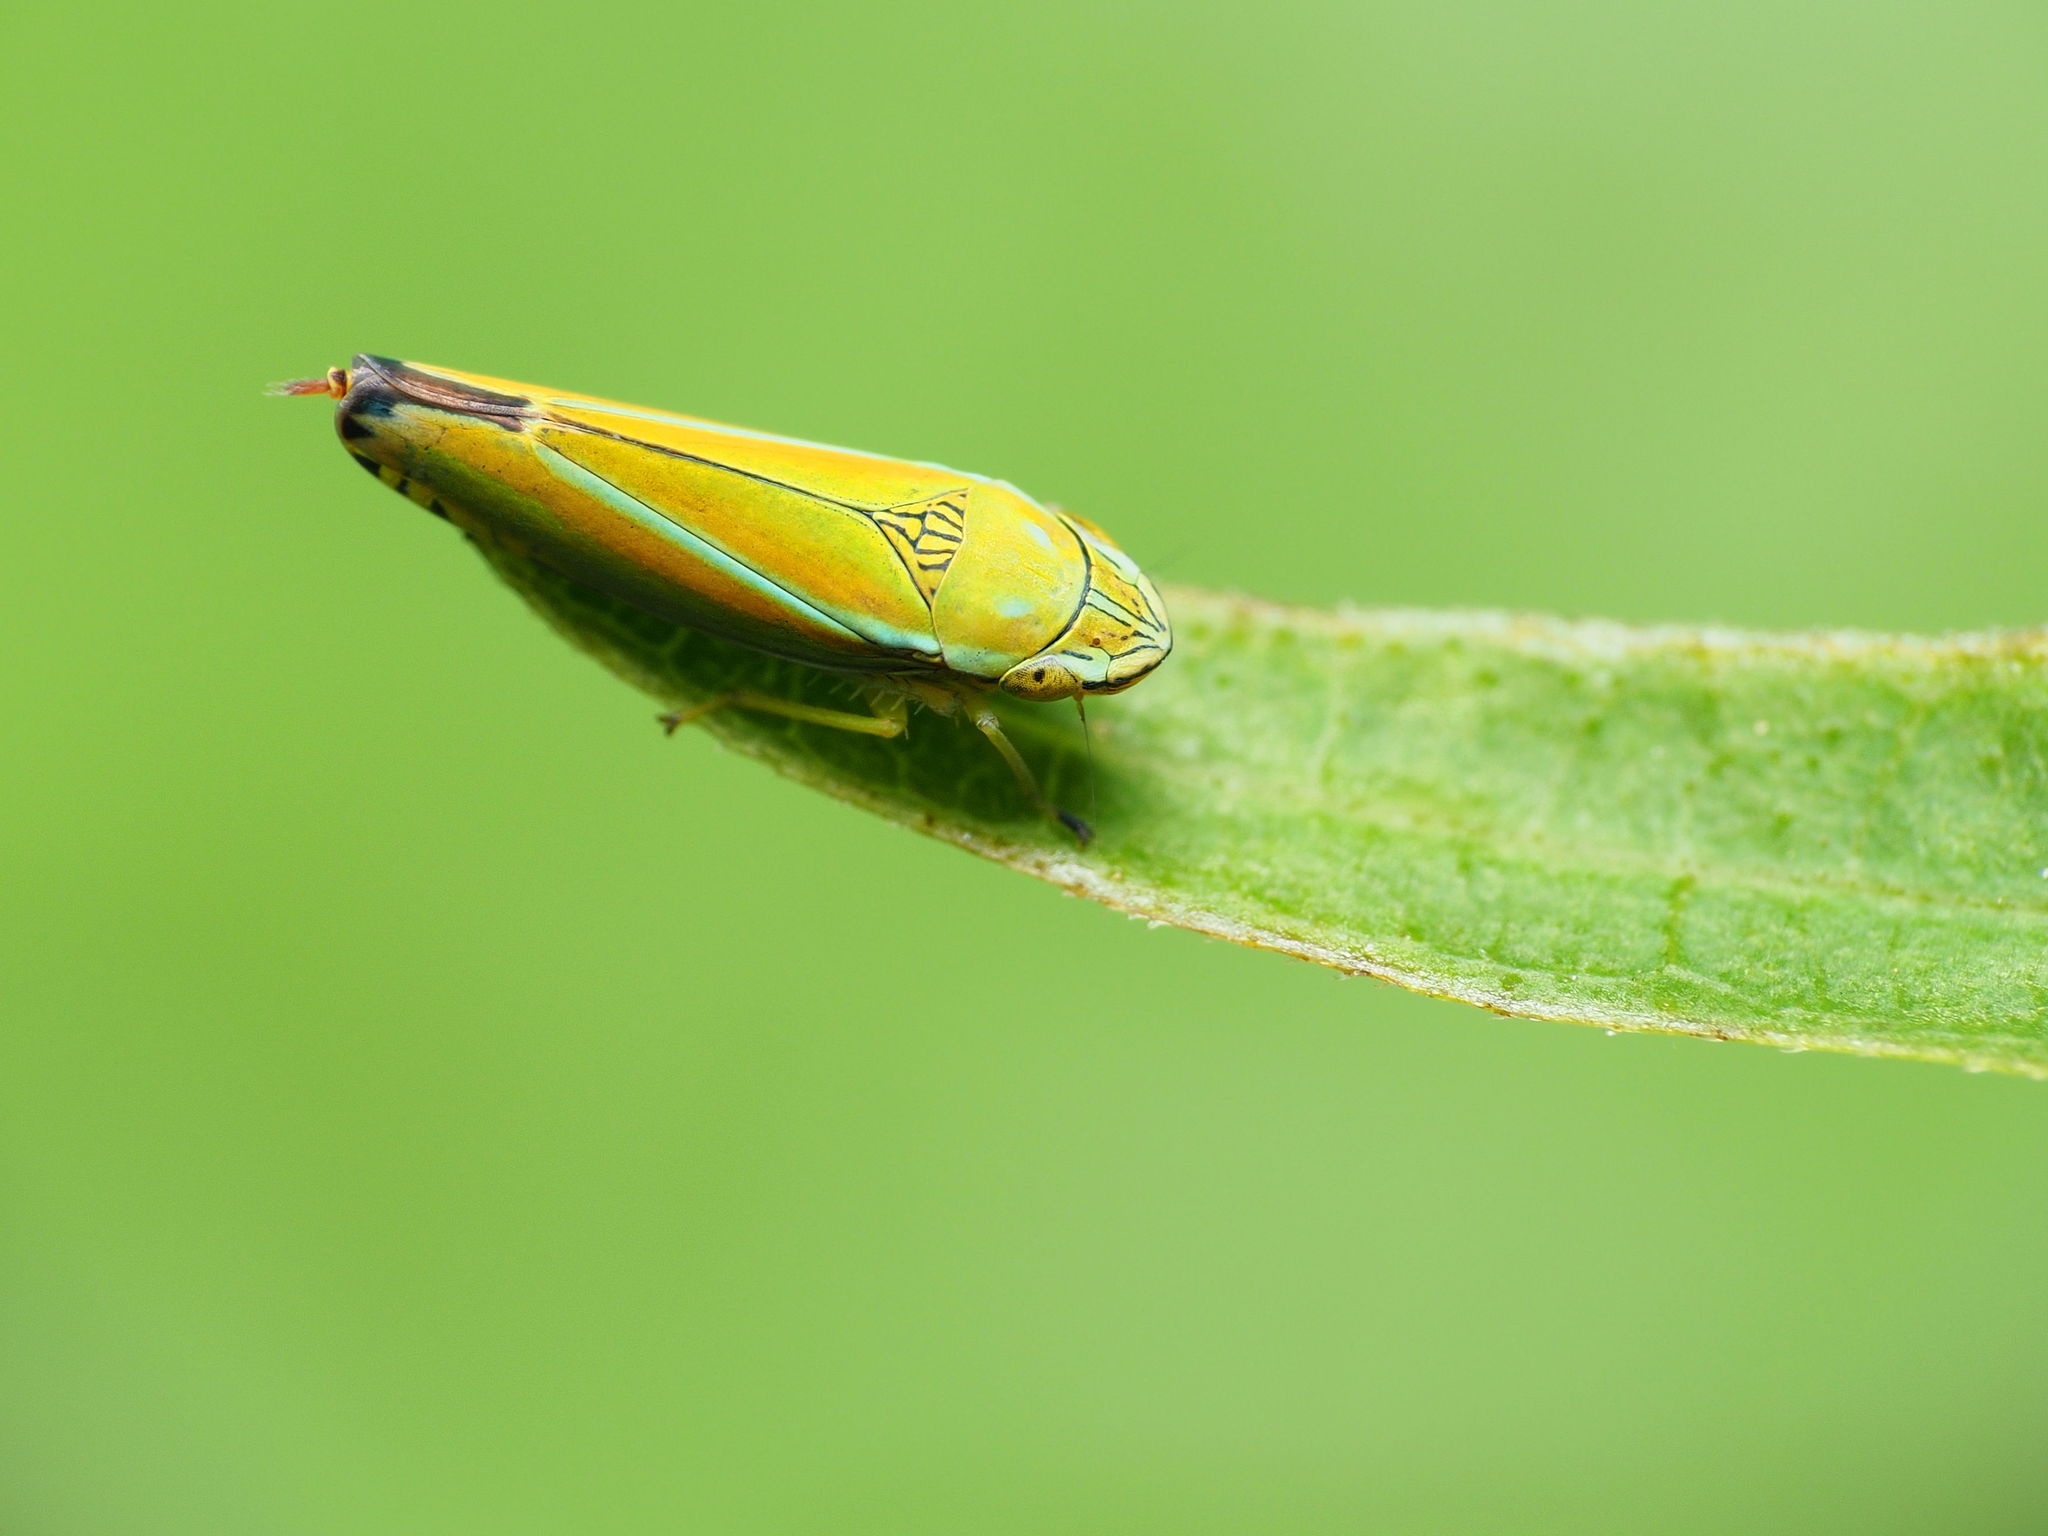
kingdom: Animalia
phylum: Arthropoda
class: Insecta
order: Hemiptera
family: Cicadellidae
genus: Graphocephala
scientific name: Graphocephala versuta
